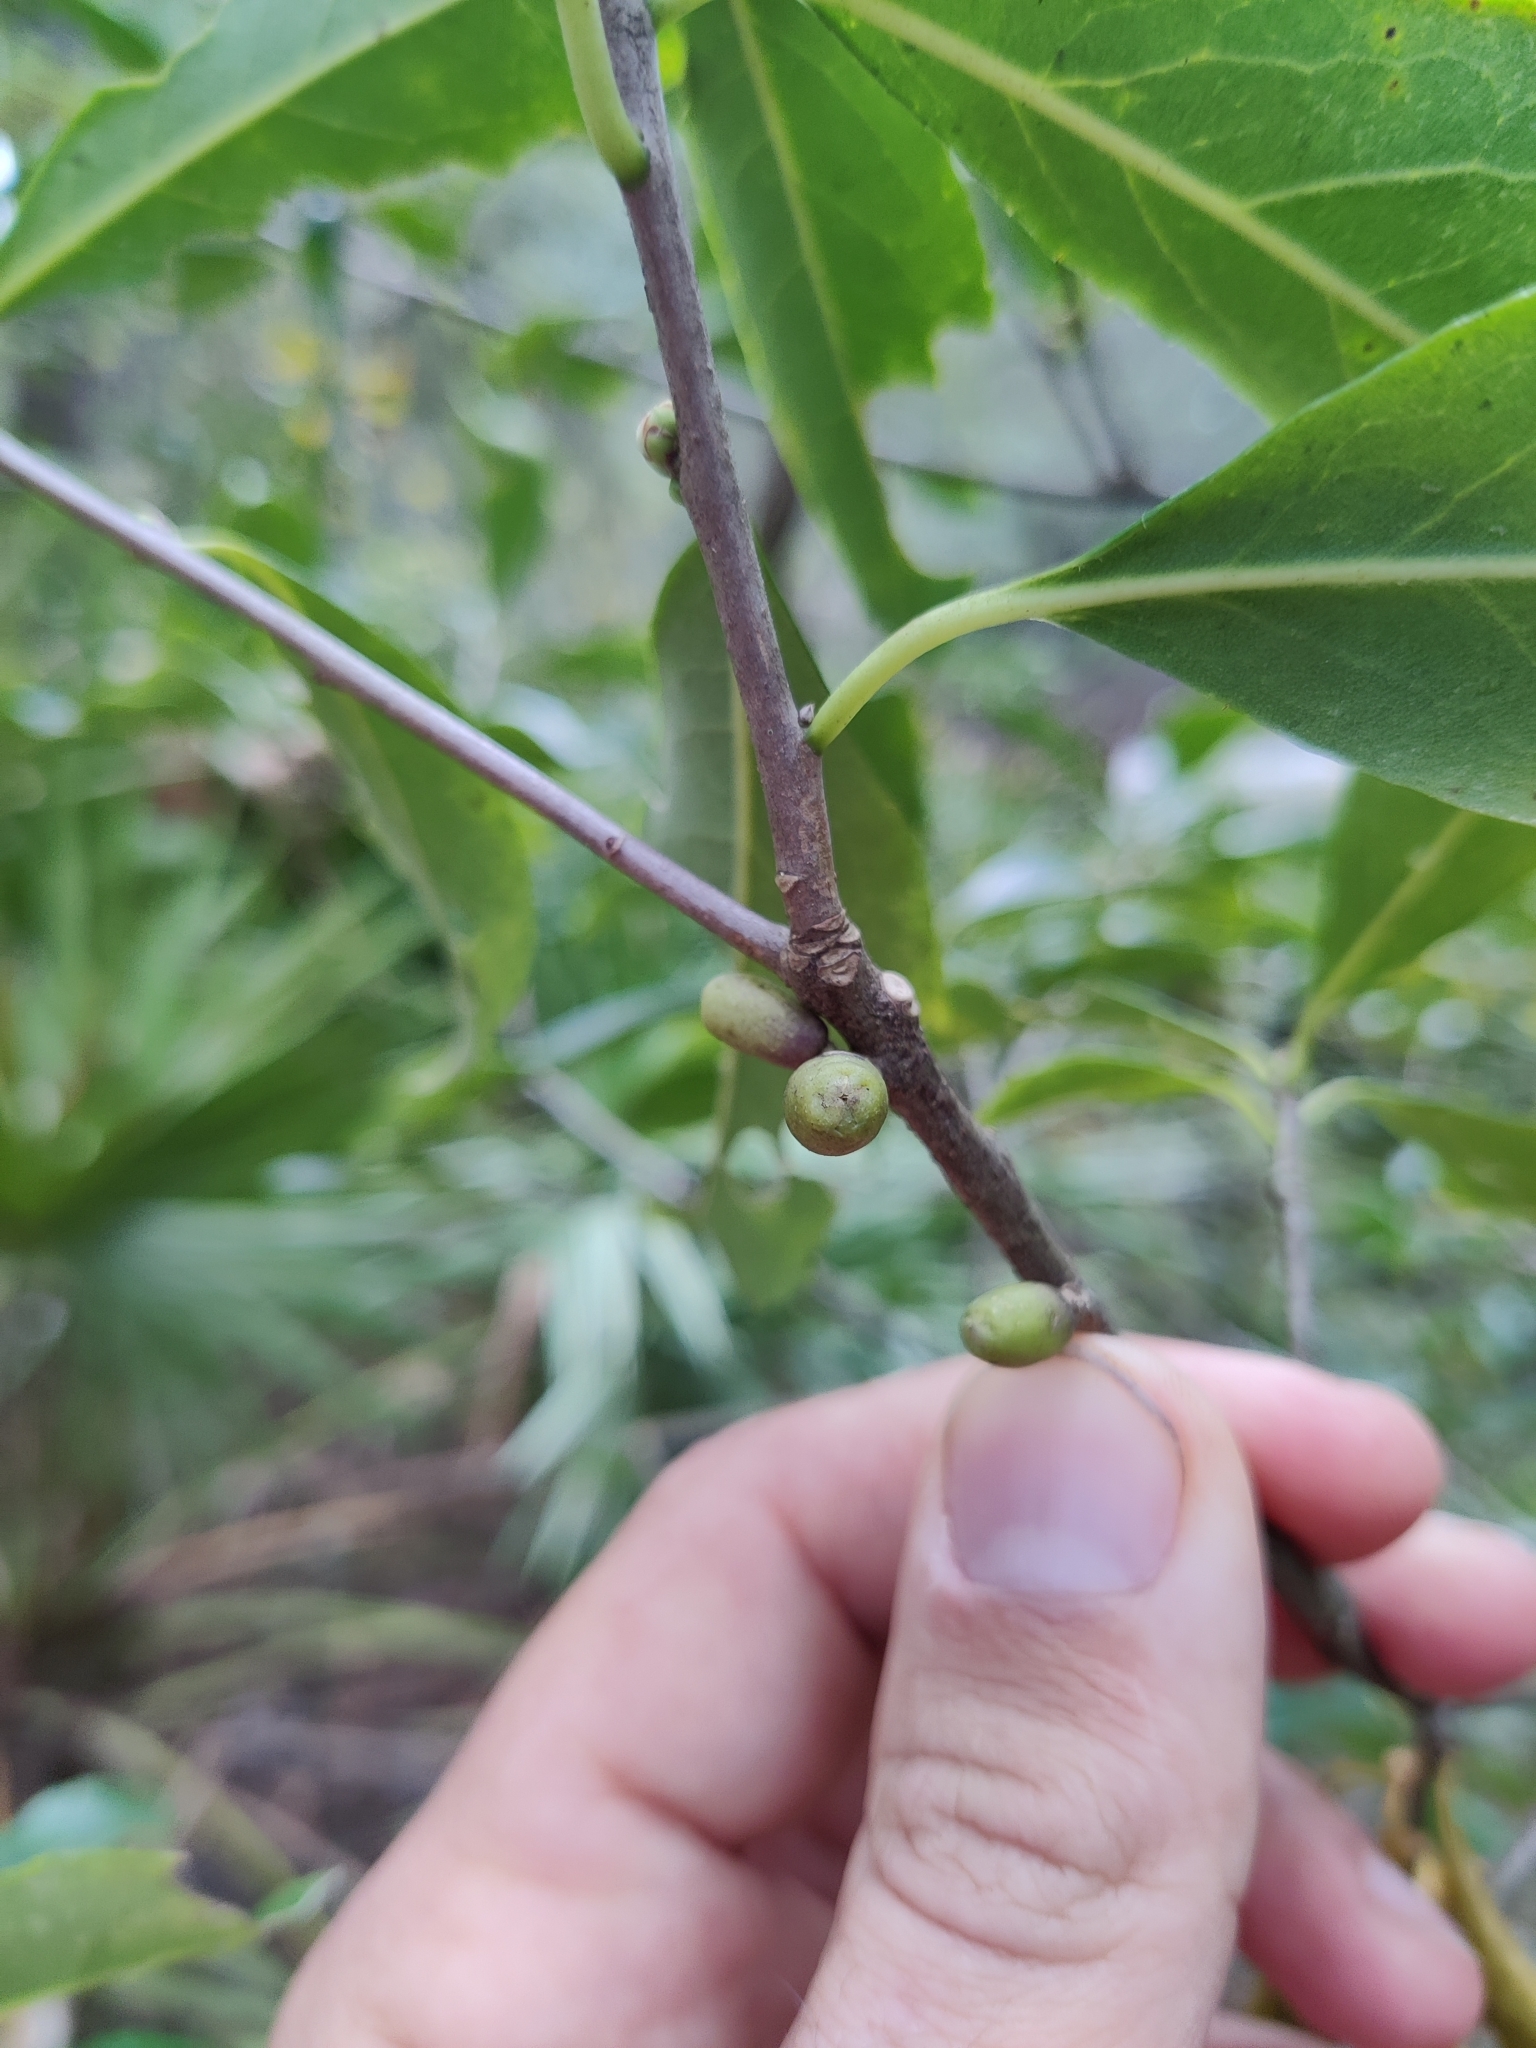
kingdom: Plantae
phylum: Tracheophyta
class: Magnoliopsida
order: Ericales
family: Symplocaceae
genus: Symplocos
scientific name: Symplocos tinctoria
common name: Horse-sugar
